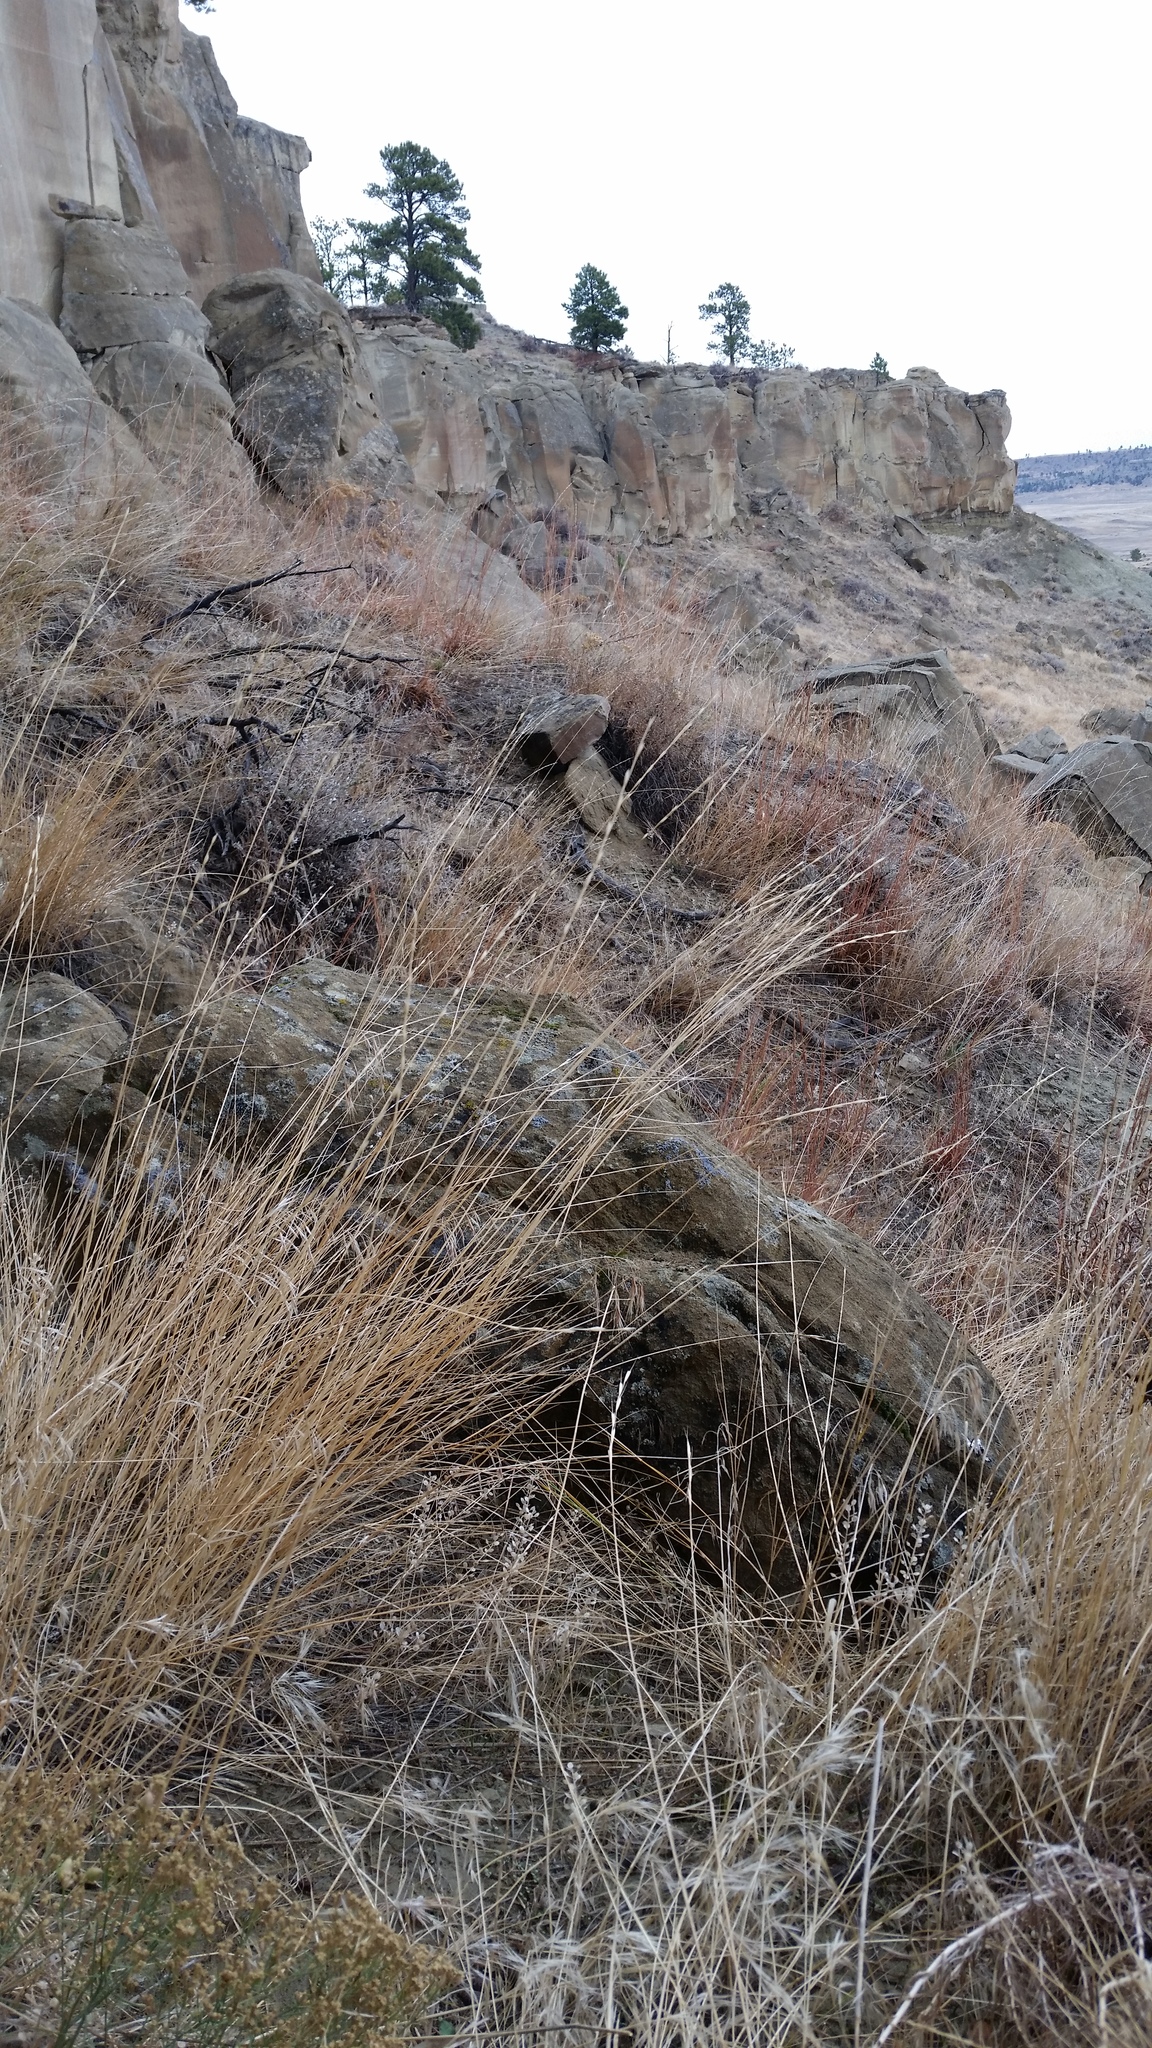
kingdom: Plantae
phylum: Tracheophyta
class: Liliopsida
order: Poales
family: Poaceae
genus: Pseudoroegneria
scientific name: Pseudoroegneria spicata
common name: Bluebunch wheatgrass
